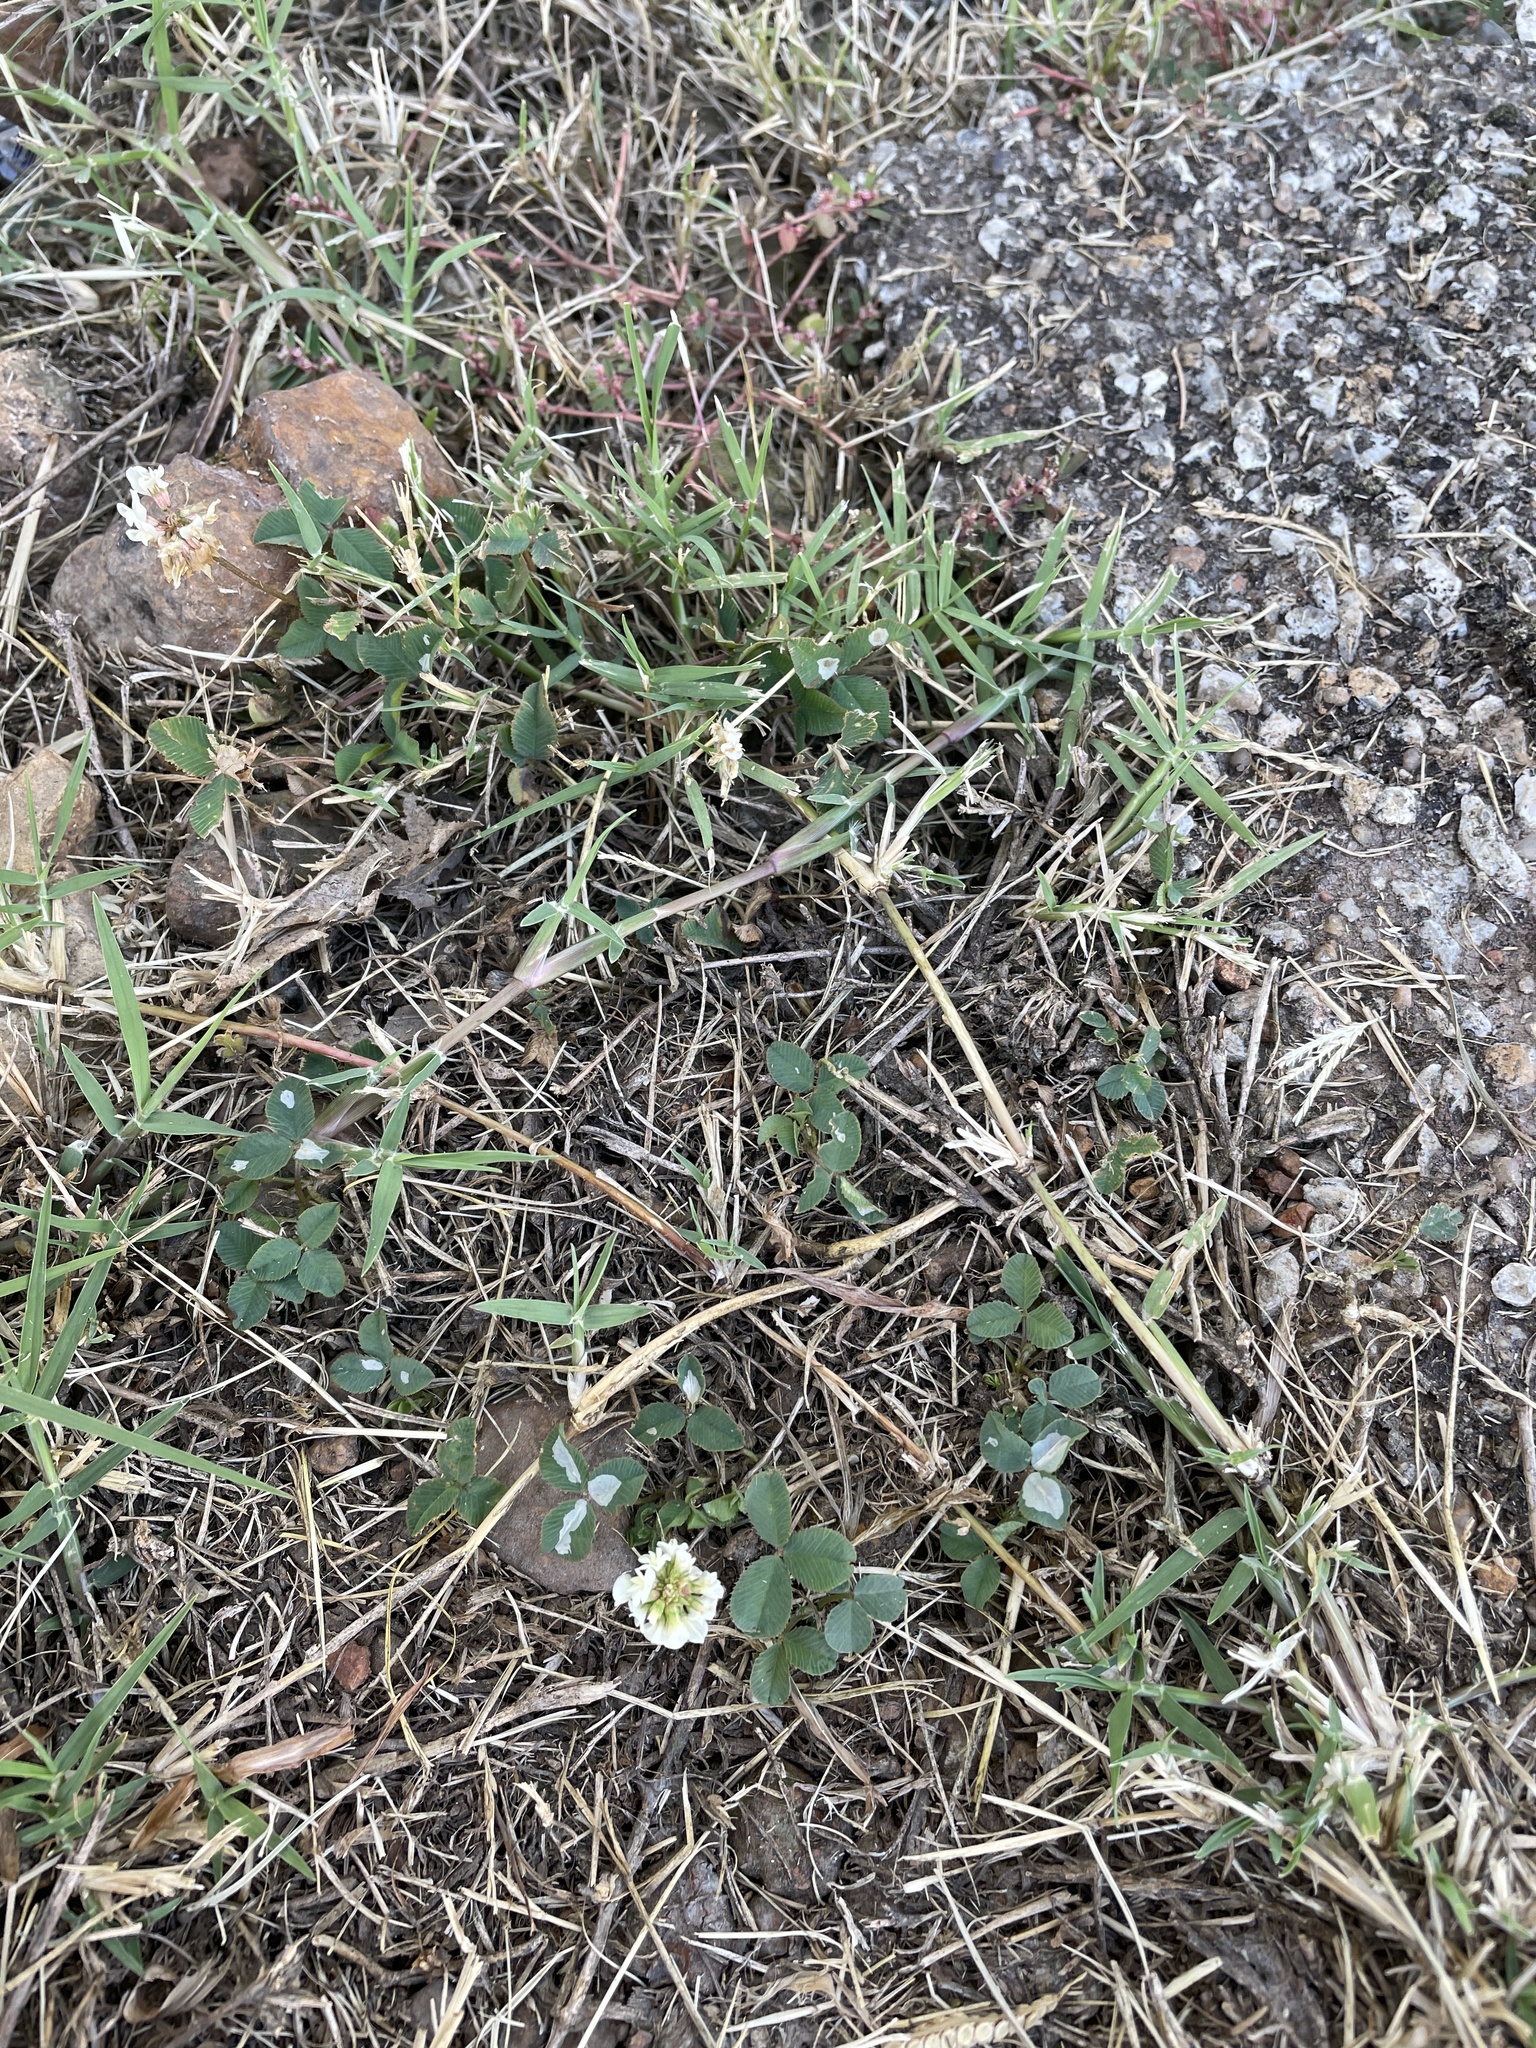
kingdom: Plantae
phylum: Tracheophyta
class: Magnoliopsida
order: Fabales
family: Fabaceae
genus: Trifolium
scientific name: Trifolium repens
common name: White clover
